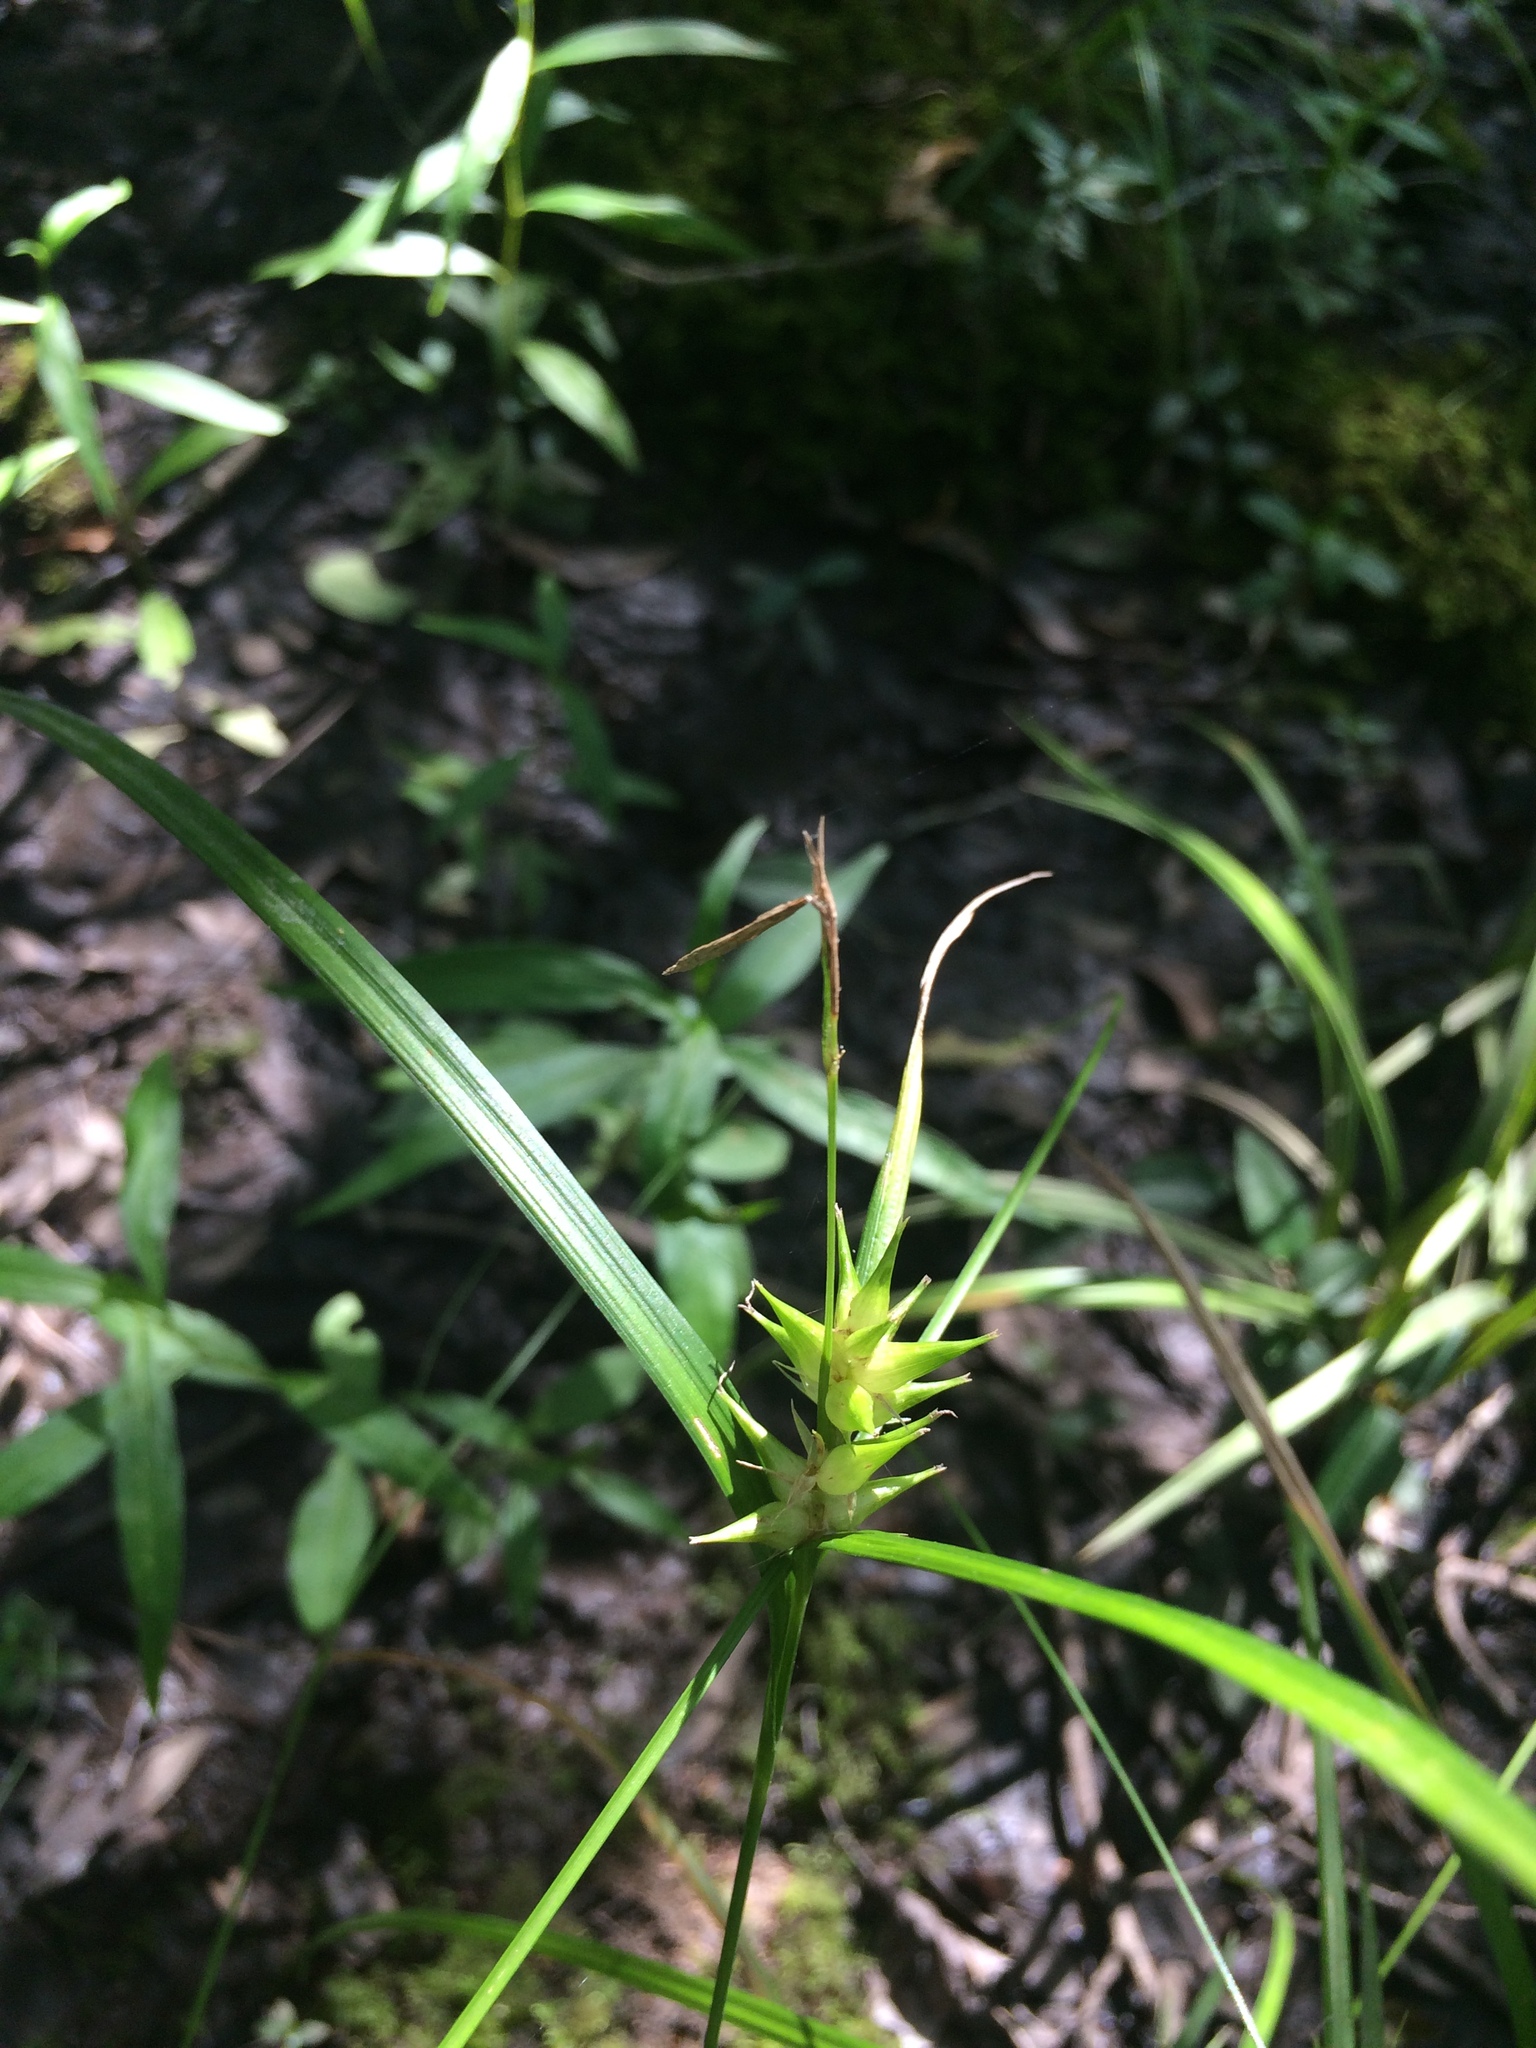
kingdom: Plantae
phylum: Tracheophyta
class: Liliopsida
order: Poales
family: Cyperaceae
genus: Carex
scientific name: Carex intumescens
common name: Greater bladder sedge
